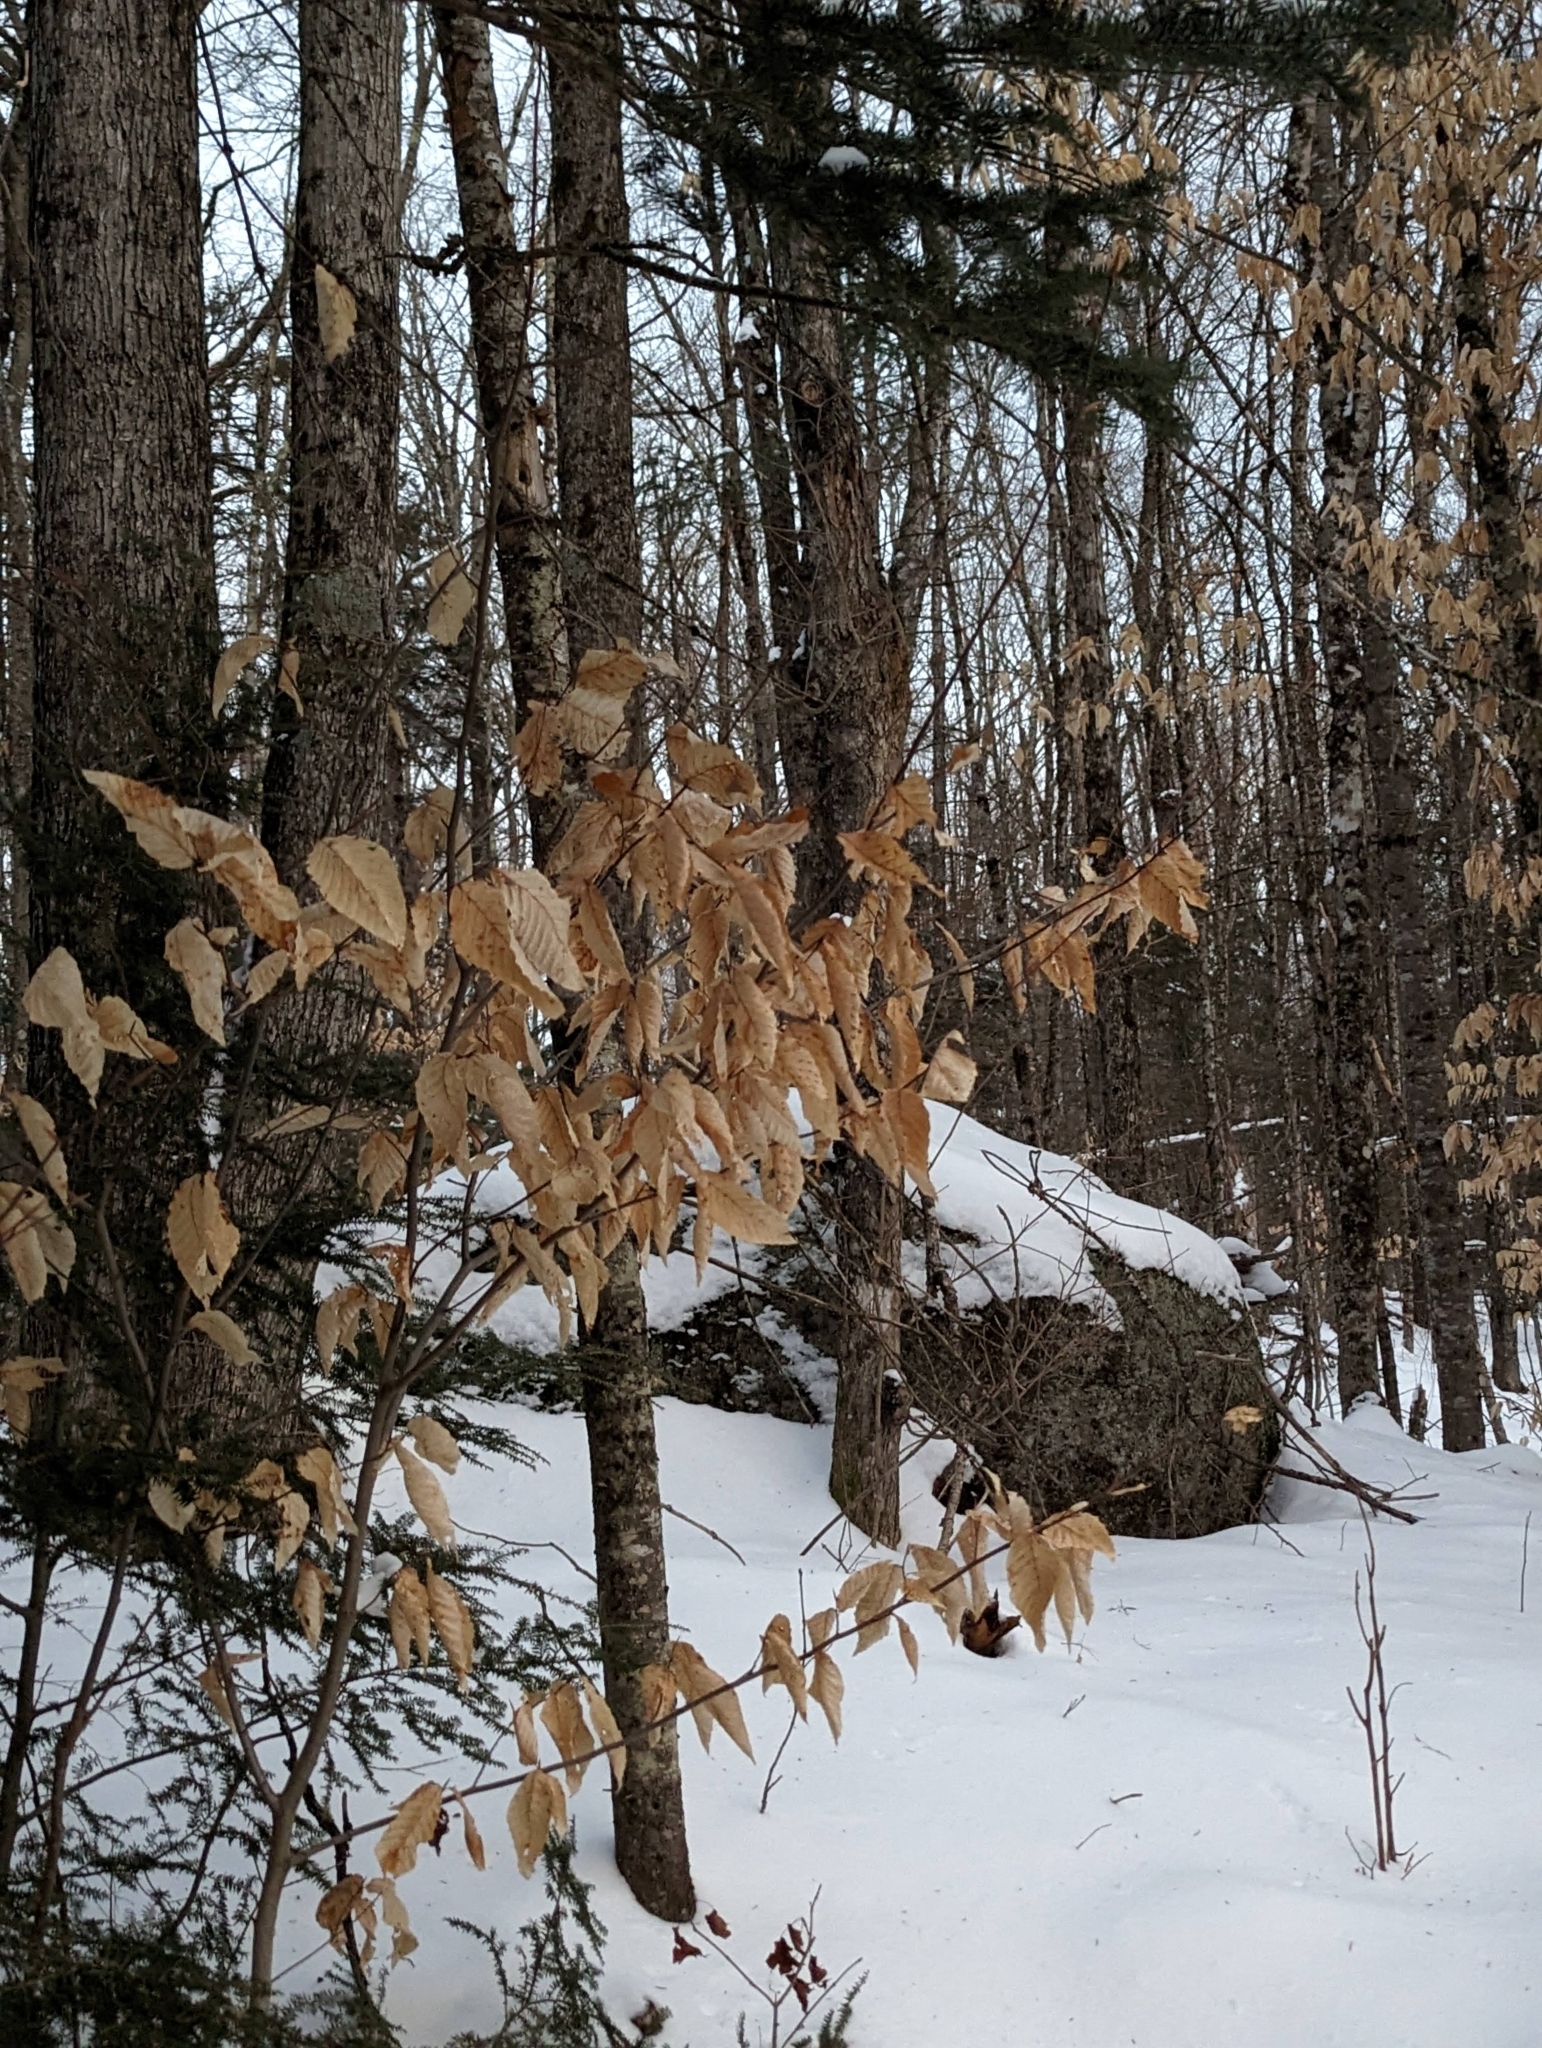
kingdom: Plantae
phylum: Tracheophyta
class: Magnoliopsida
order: Fagales
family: Fagaceae
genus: Fagus
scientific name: Fagus grandifolia
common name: American beech
